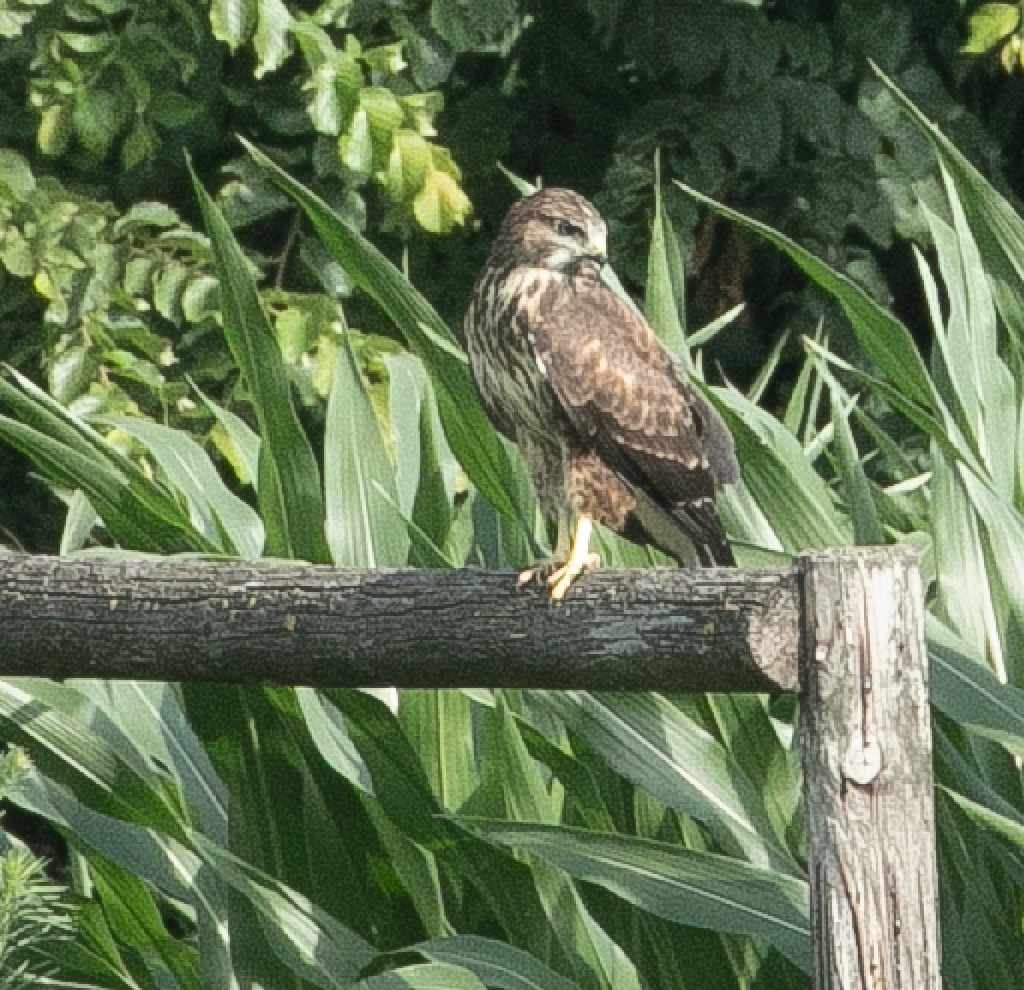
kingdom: Animalia
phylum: Chordata
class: Aves
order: Accipitriformes
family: Accipitridae
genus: Buteo
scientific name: Buteo buteo
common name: Common buzzard
